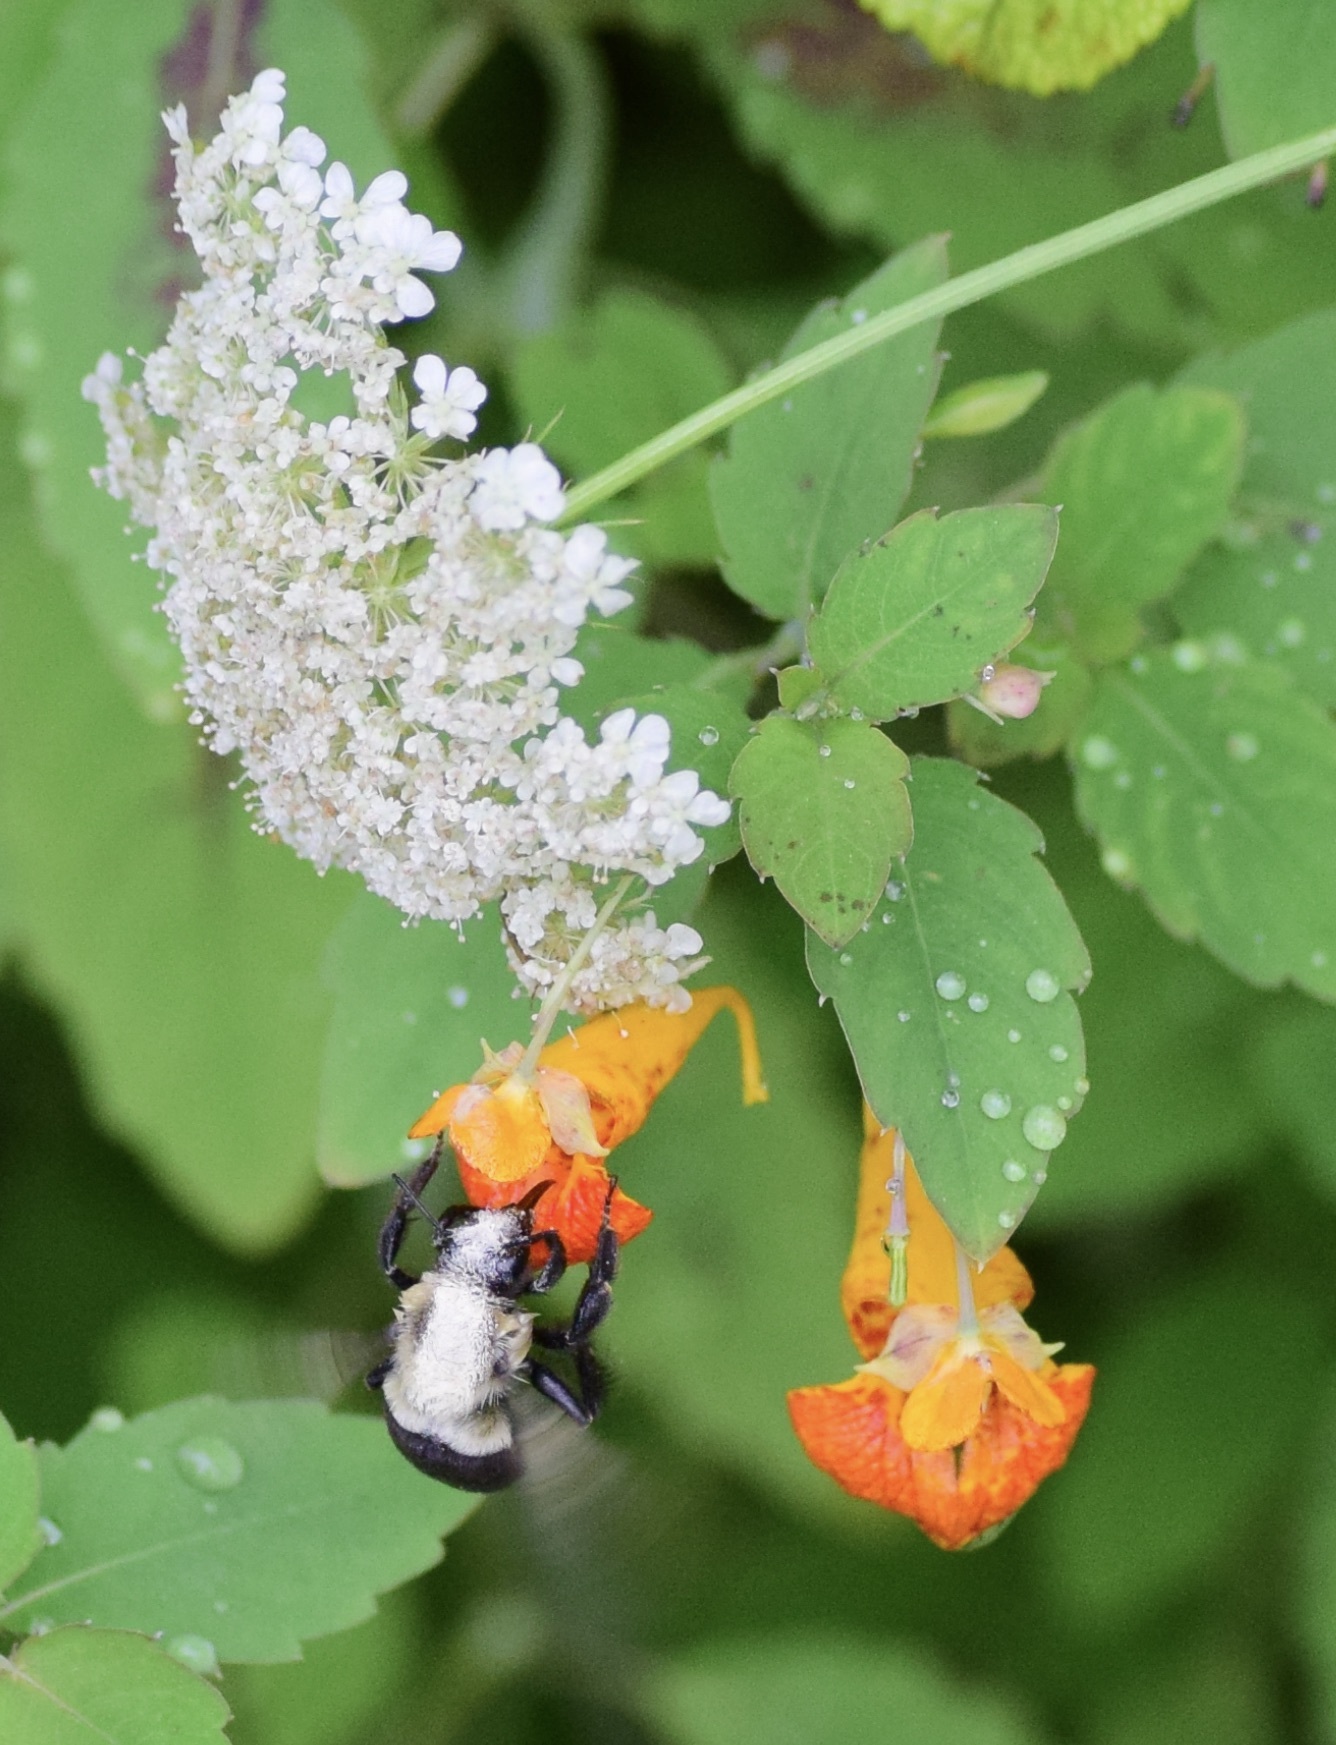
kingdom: Animalia
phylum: Arthropoda
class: Insecta
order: Hymenoptera
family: Apidae
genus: Bombus
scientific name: Bombus impatiens
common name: Common eastern bumble bee
